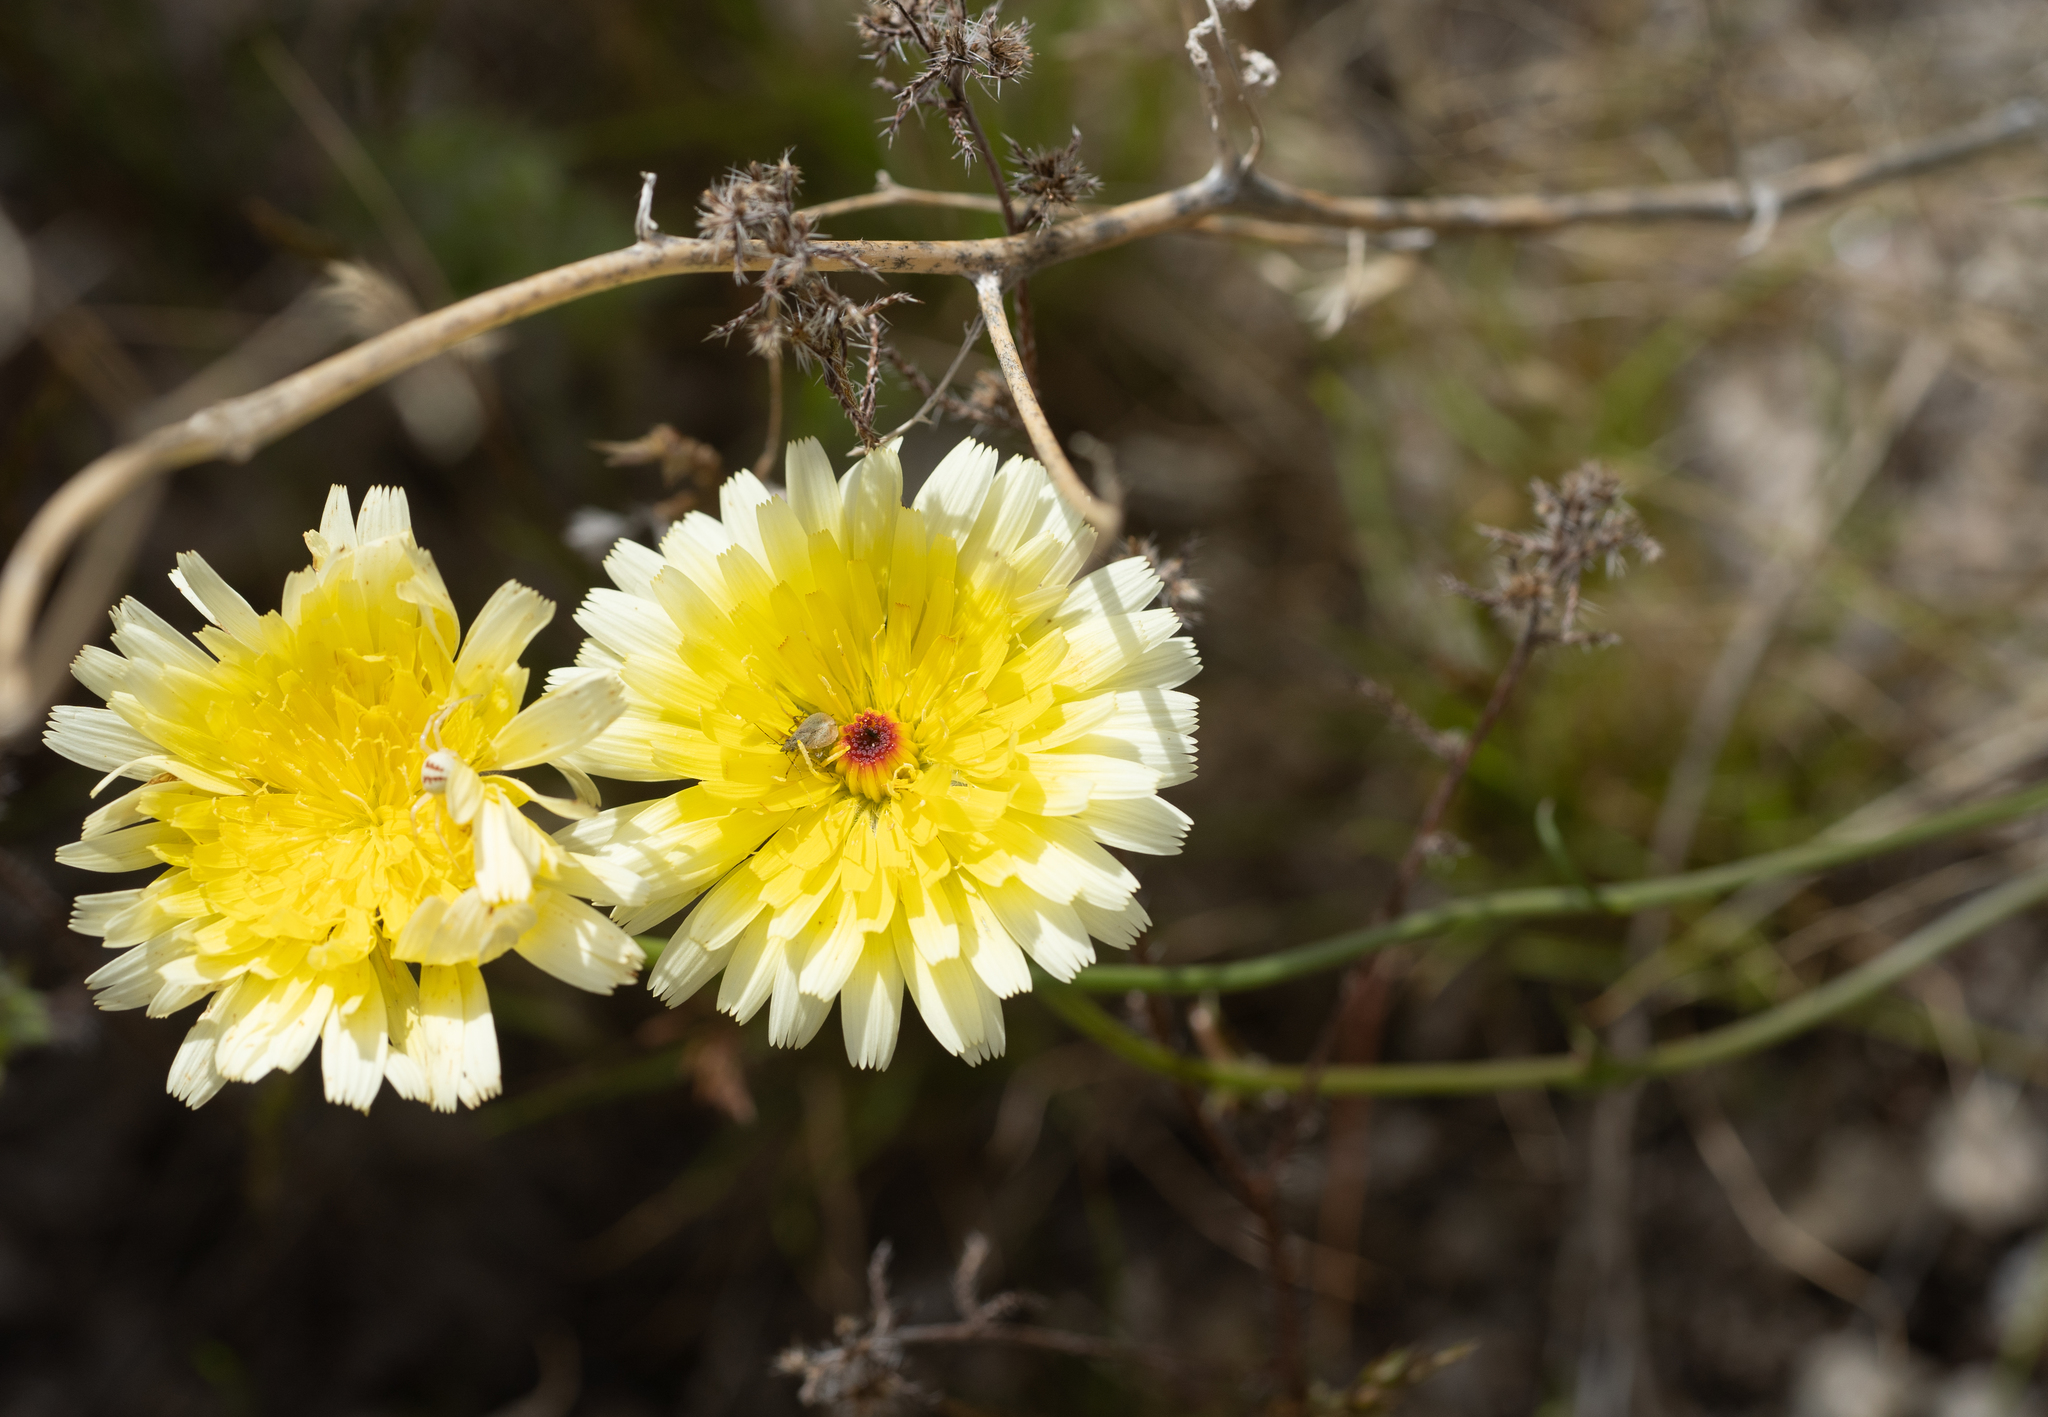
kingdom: Plantae
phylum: Tracheophyta
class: Magnoliopsida
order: Asterales
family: Asteraceae
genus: Malacothrix
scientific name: Malacothrix glabrata
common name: Smooth desert-dandelion
